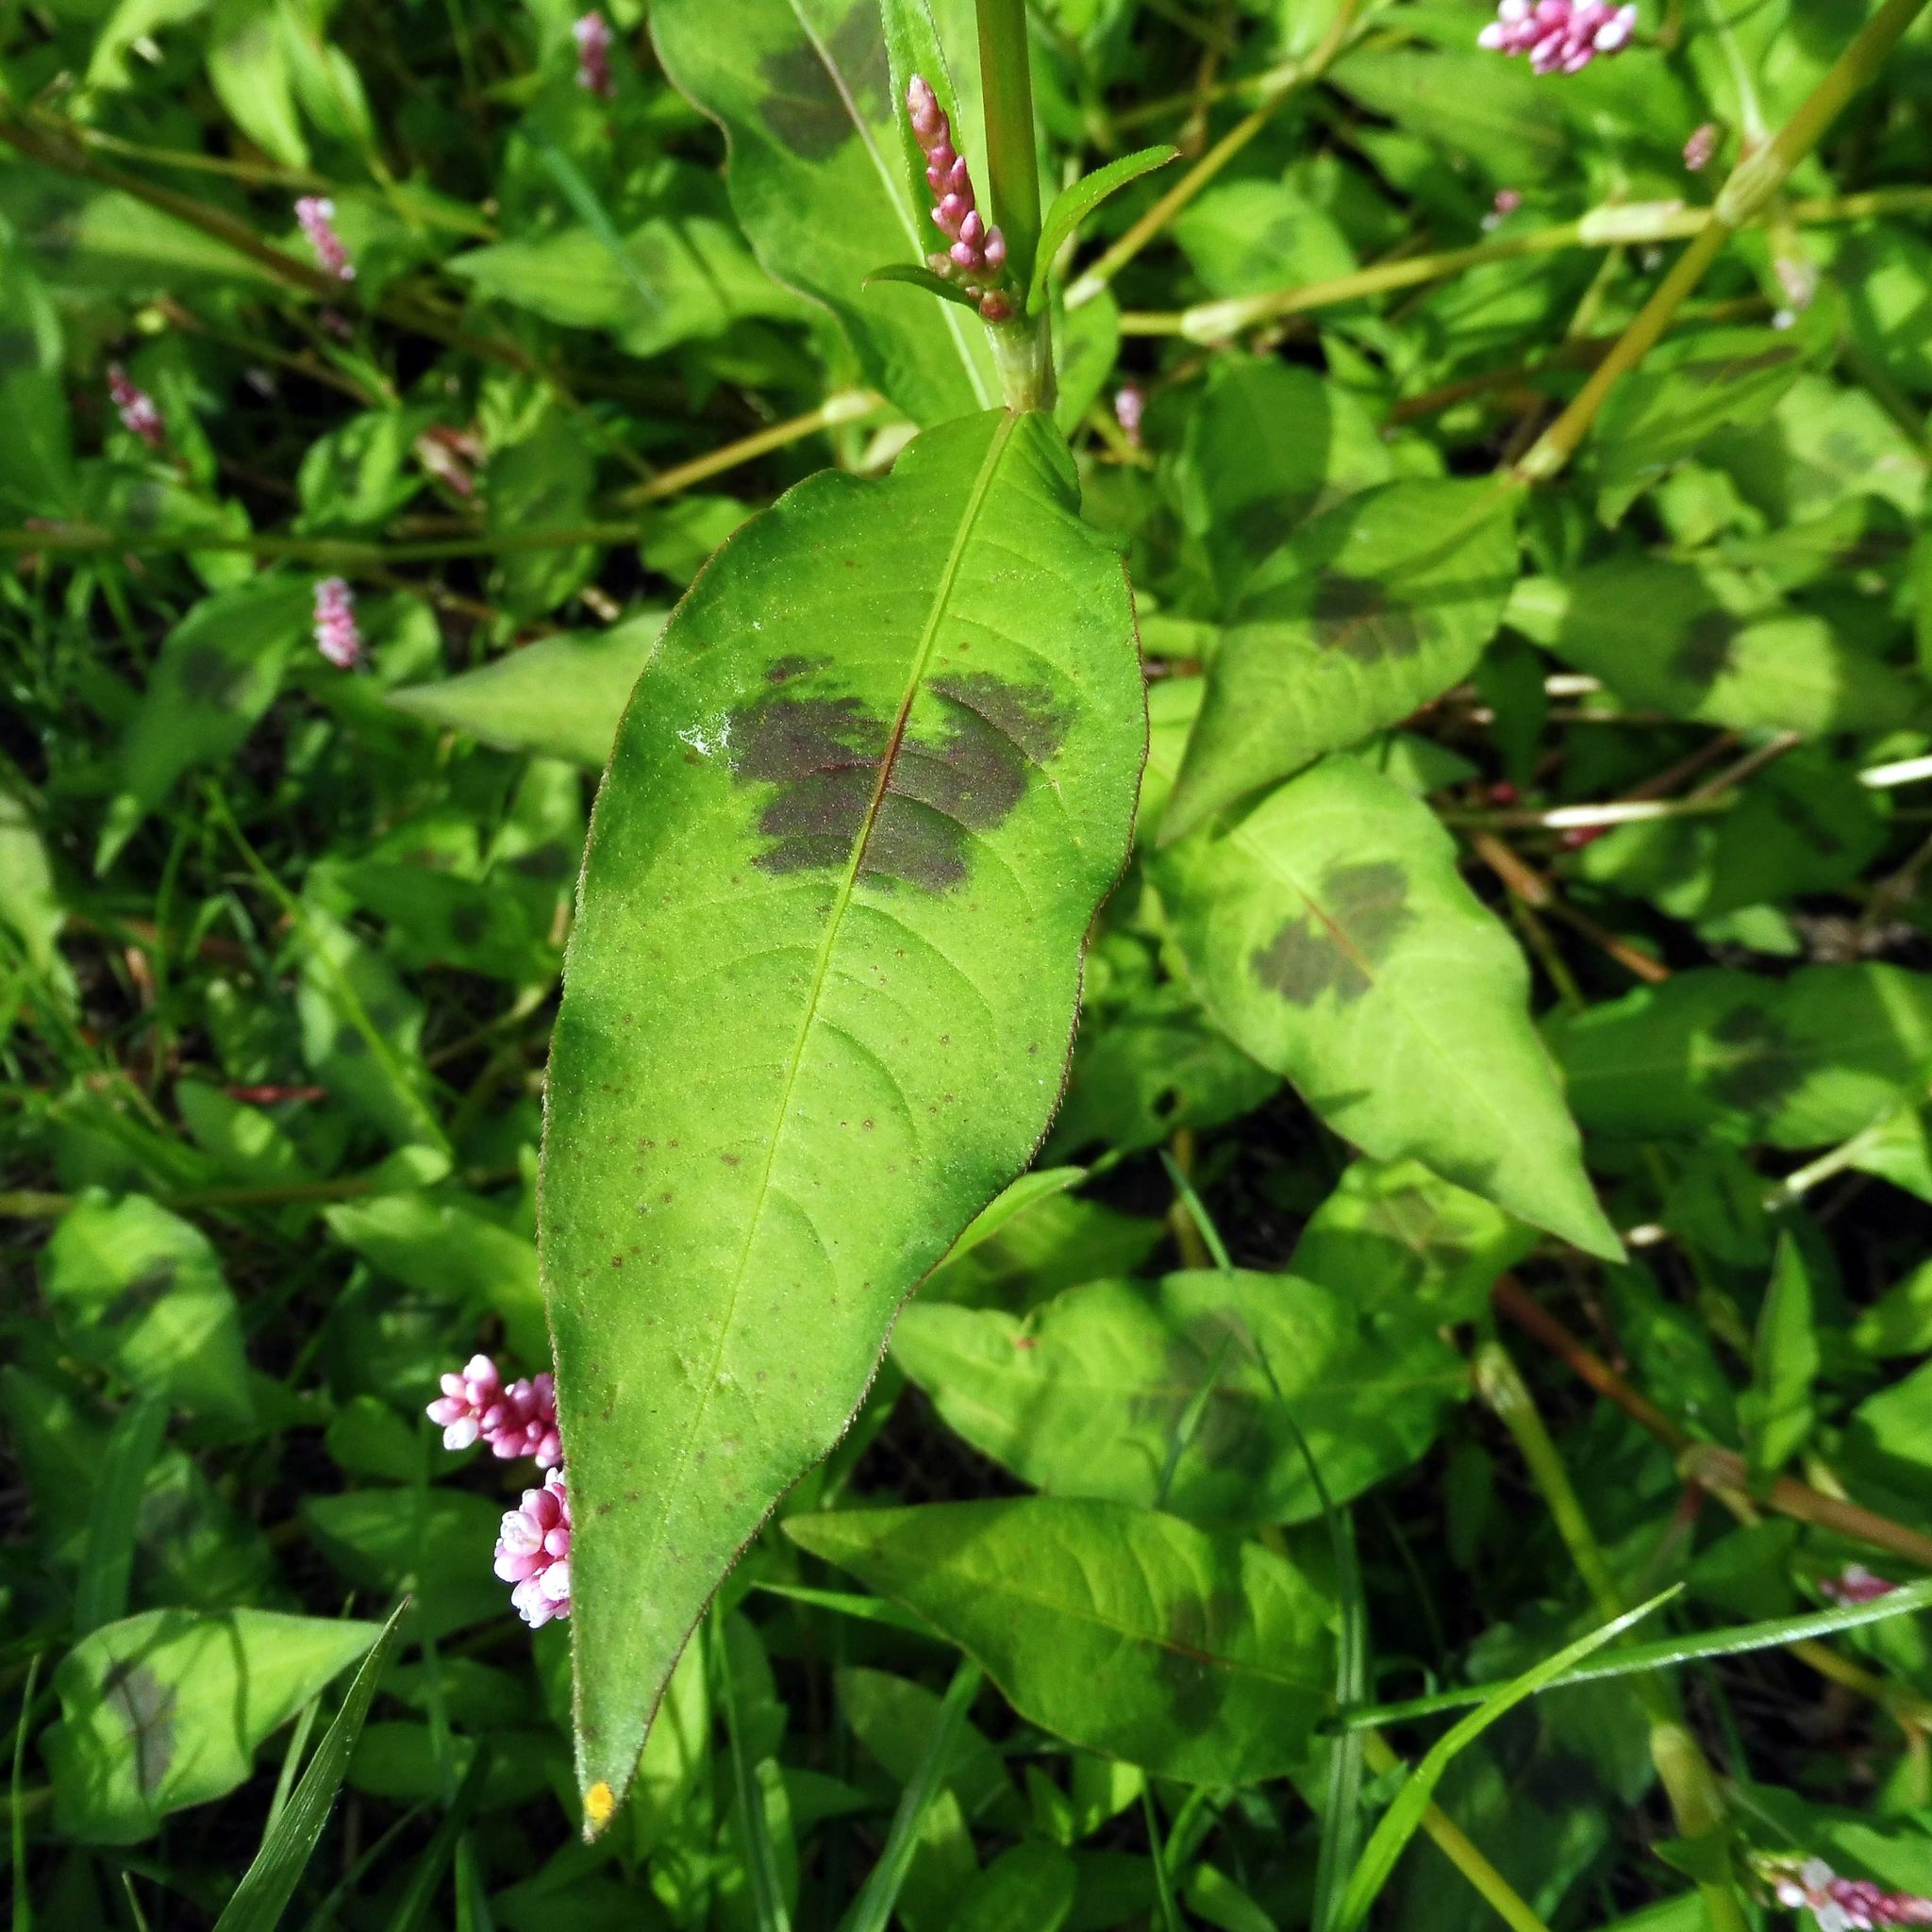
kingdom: Plantae
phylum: Tracheophyta
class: Magnoliopsida
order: Caryophyllales
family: Polygonaceae
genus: Persicaria
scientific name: Persicaria maculosa
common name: Redshank
